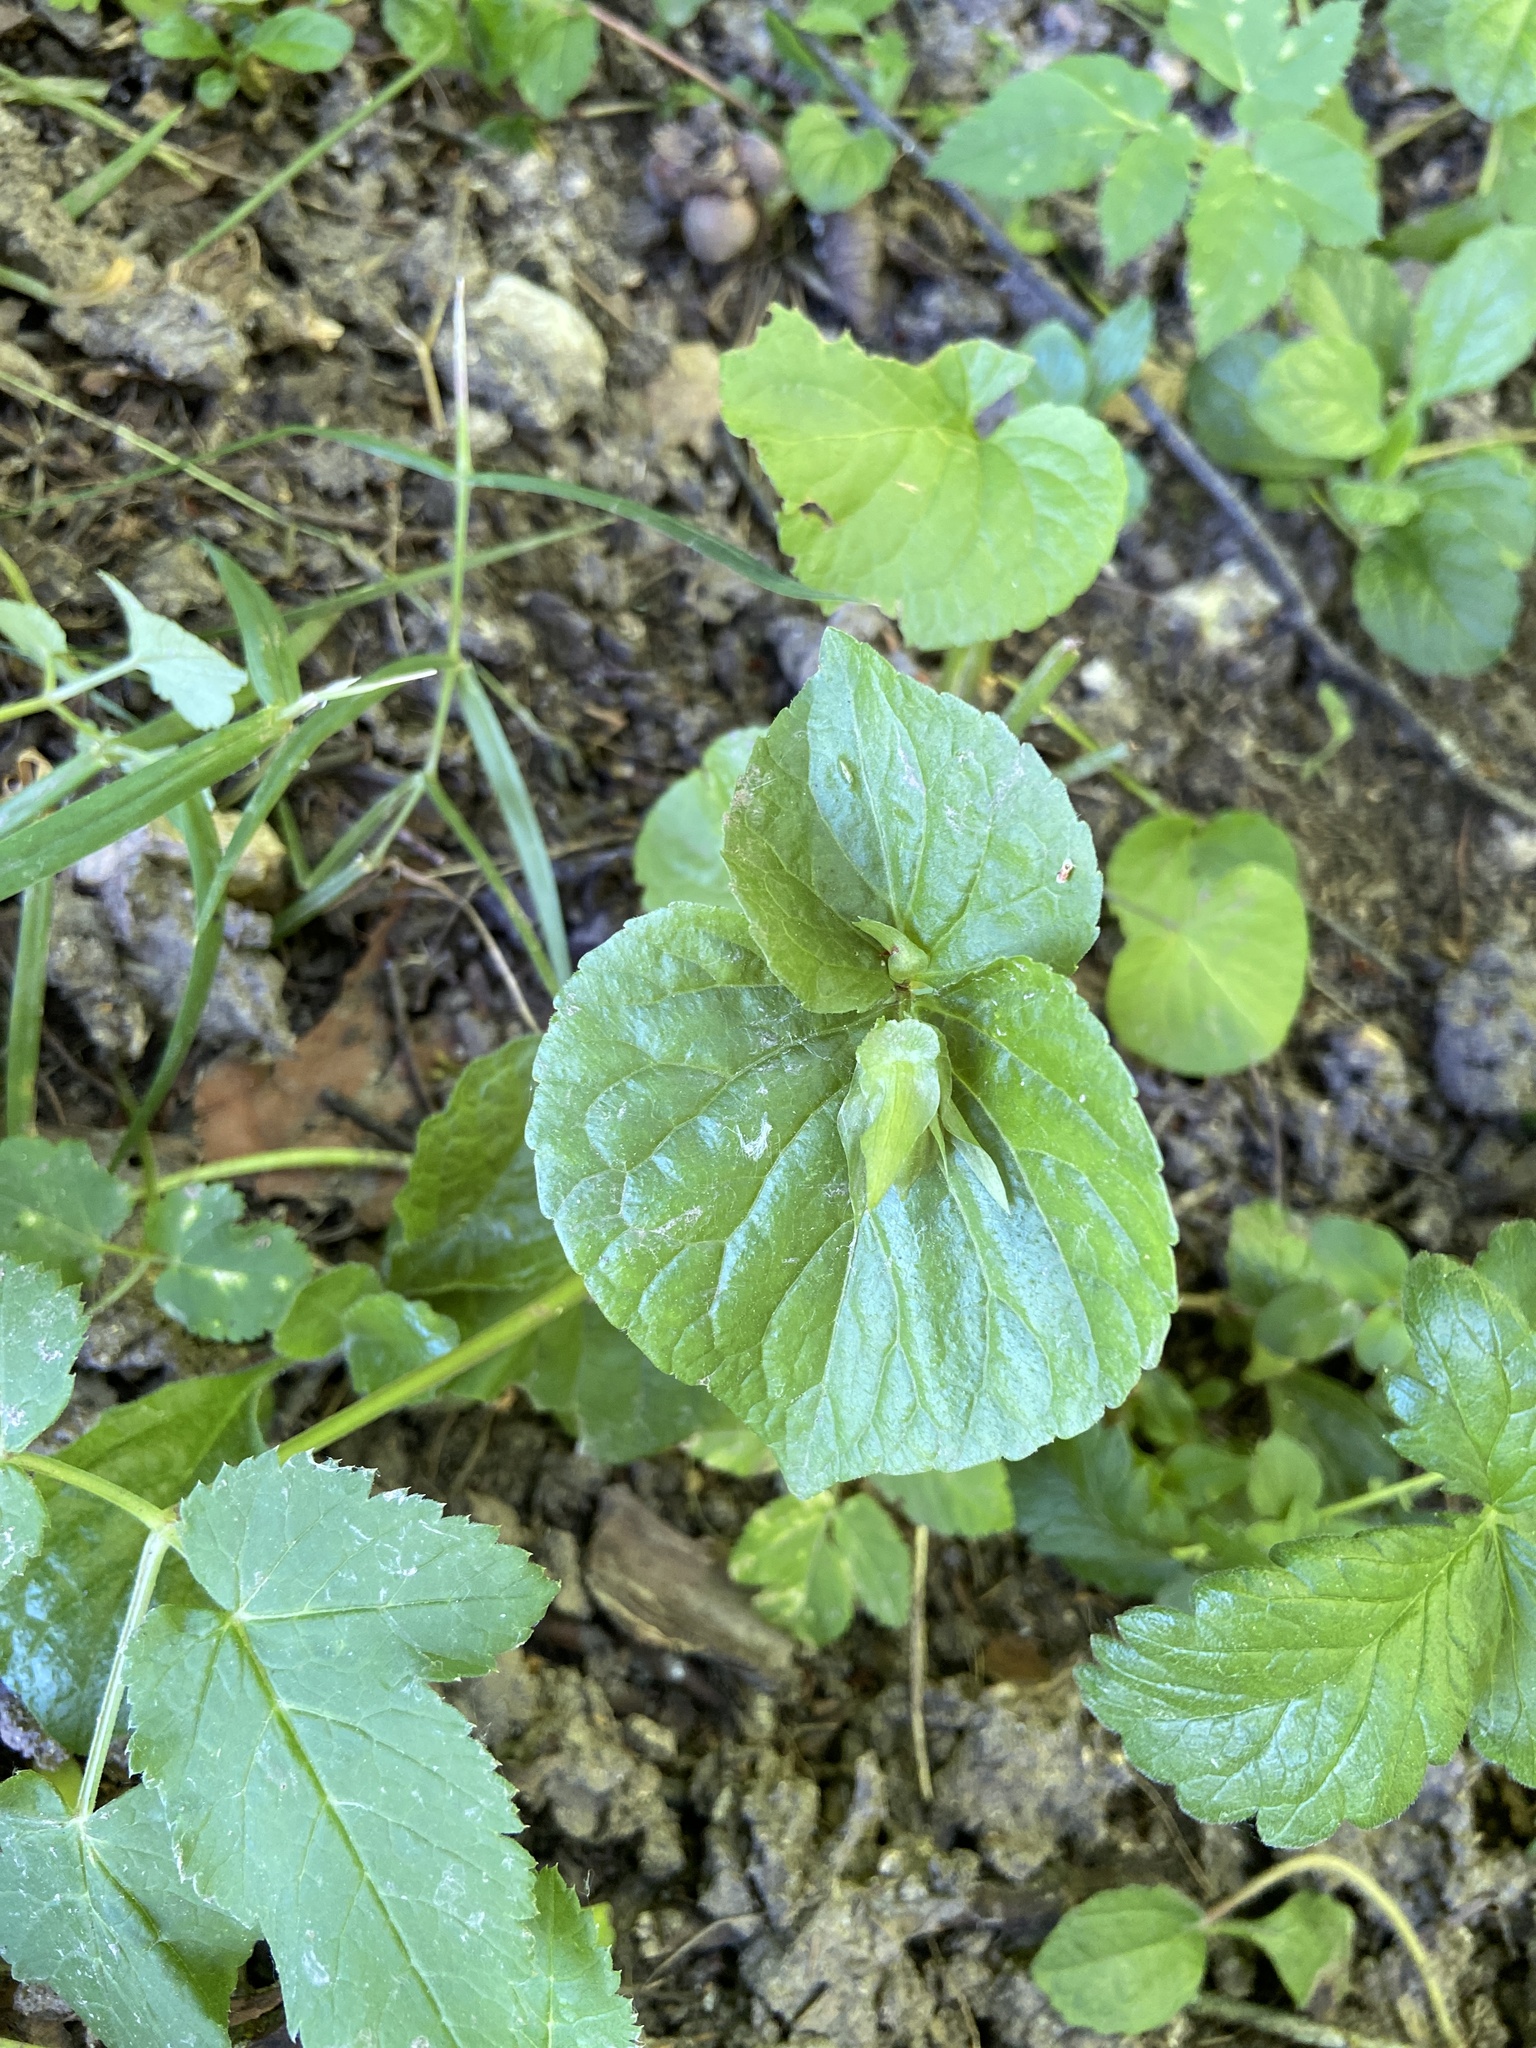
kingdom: Plantae
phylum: Tracheophyta
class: Magnoliopsida
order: Malpighiales
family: Violaceae
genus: Viola
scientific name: Viola mirabilis
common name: Wonder violet
